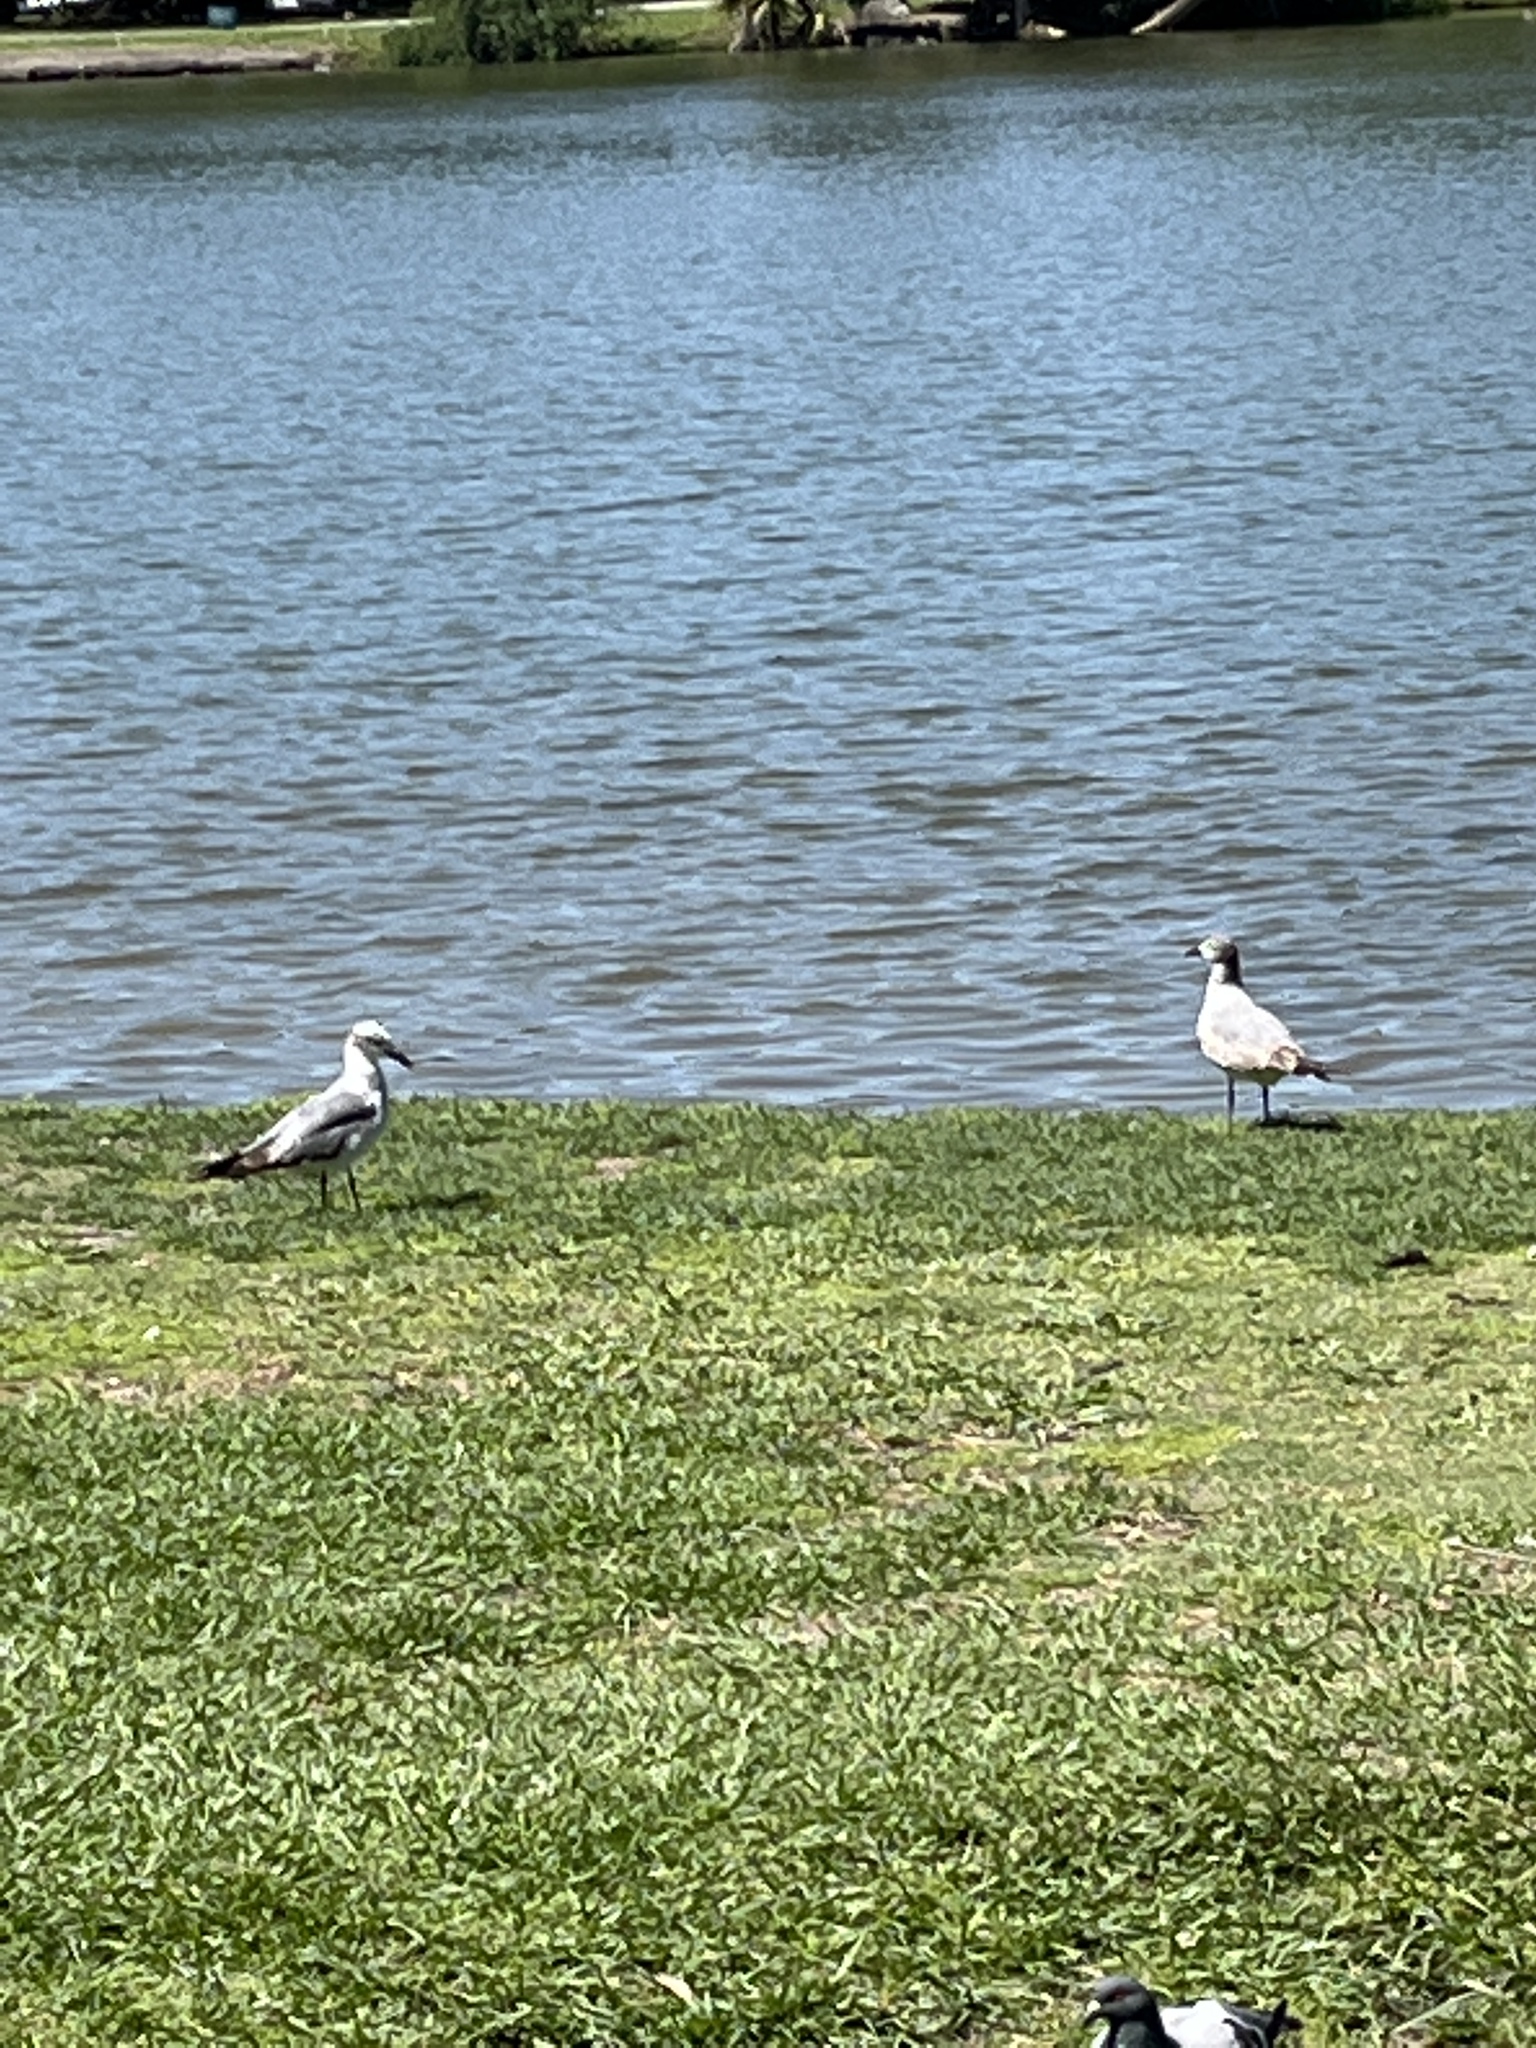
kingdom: Animalia
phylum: Chordata
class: Aves
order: Charadriiformes
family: Laridae
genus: Leucophaeus
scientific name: Leucophaeus atricilla
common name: Laughing gull
